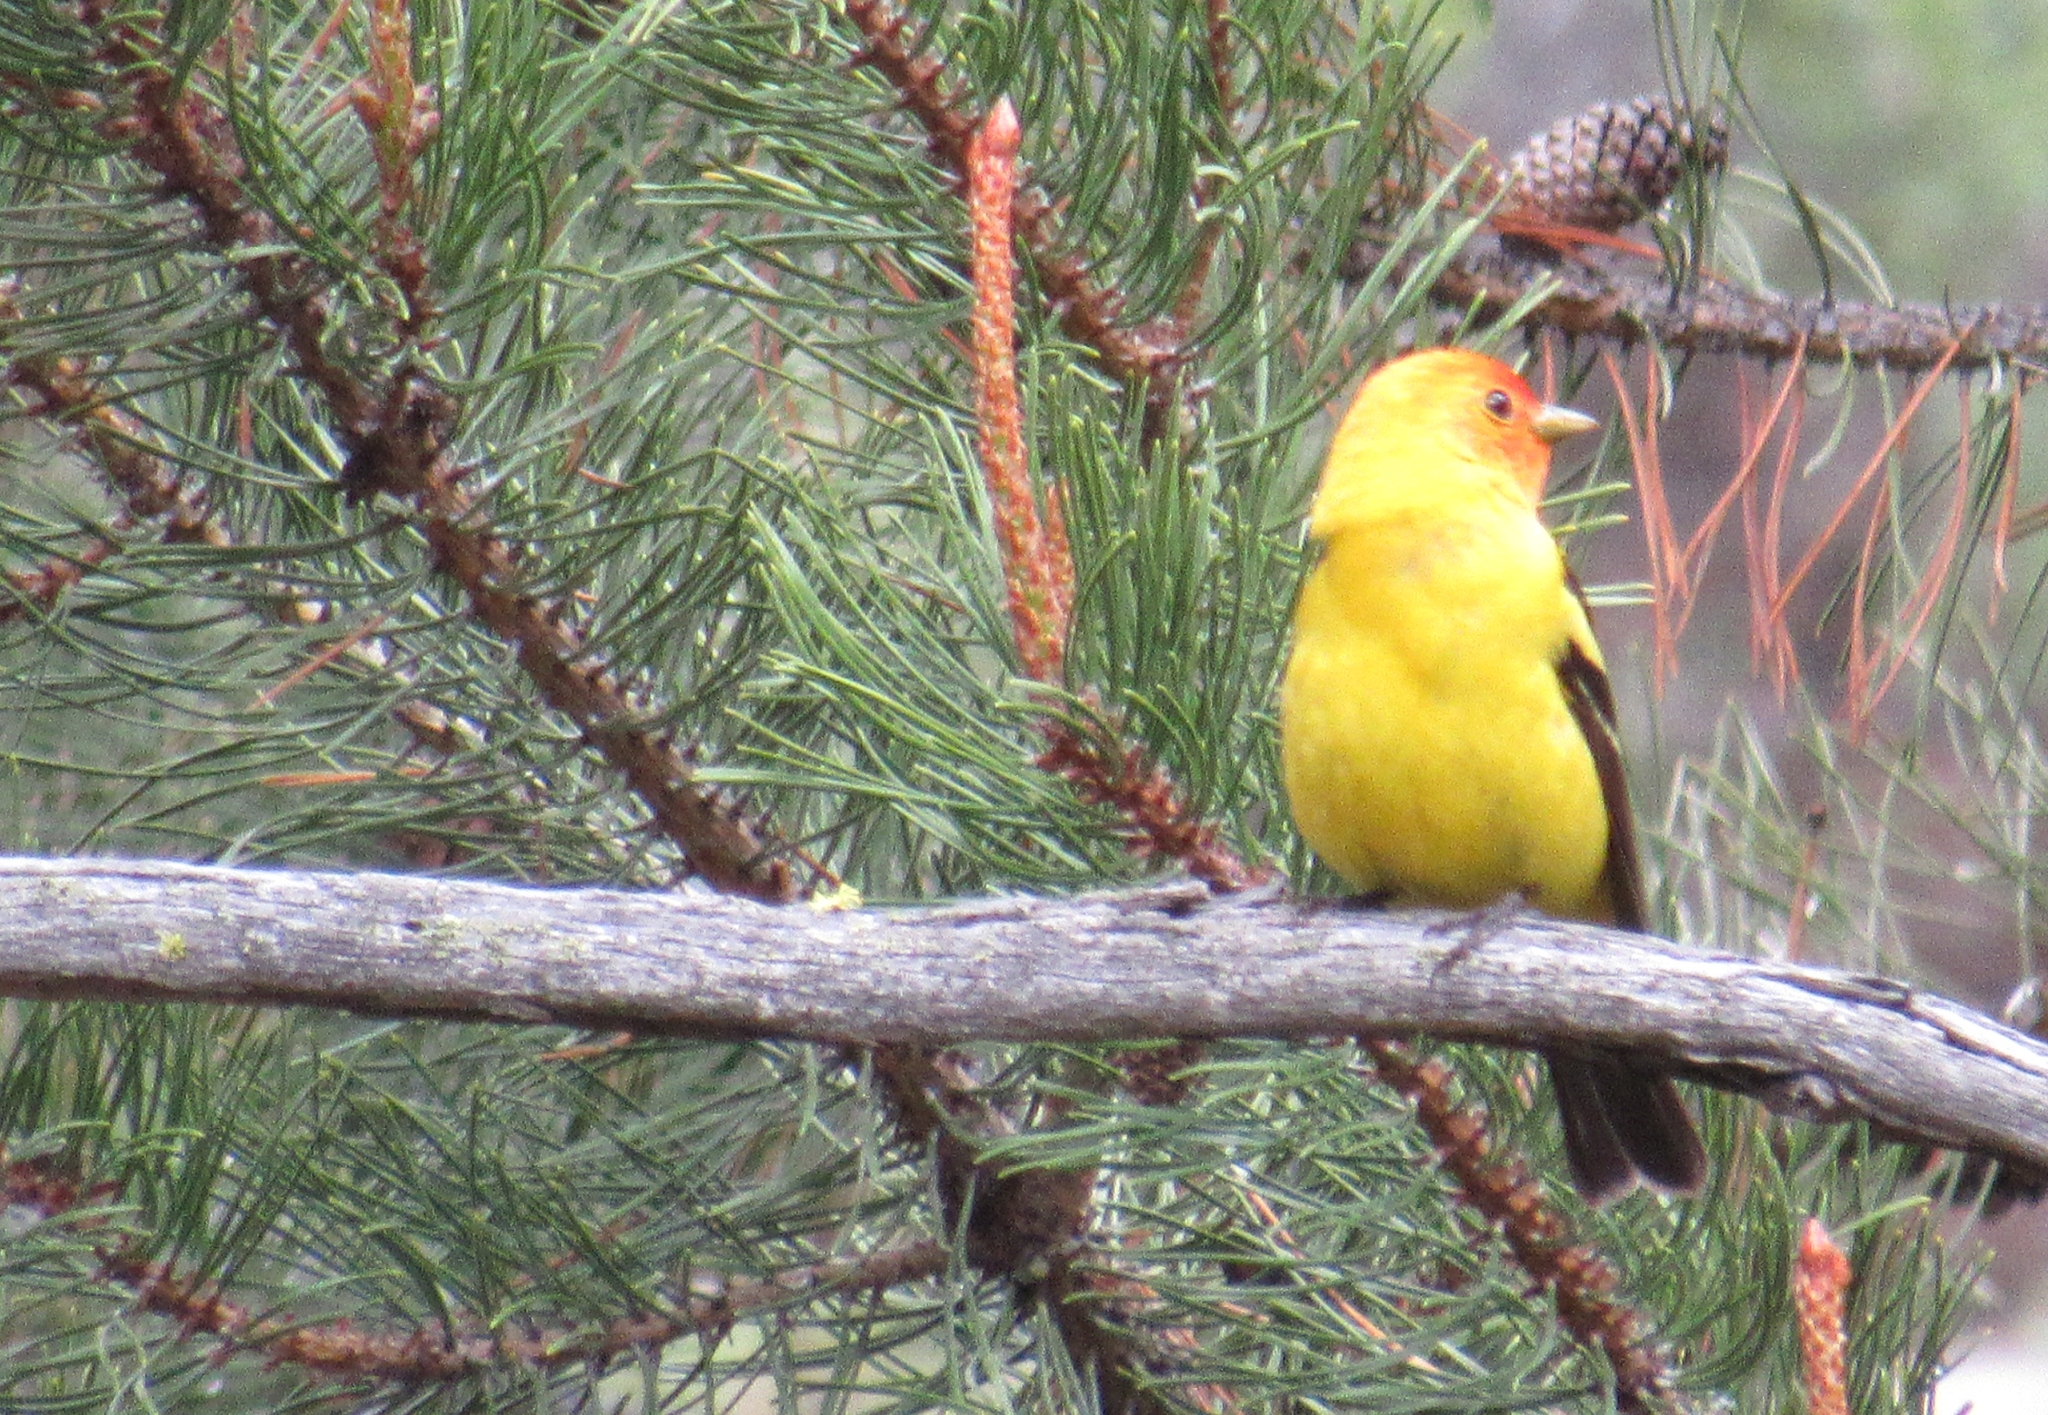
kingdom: Animalia
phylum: Chordata
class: Aves
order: Passeriformes
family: Cardinalidae
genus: Piranga
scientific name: Piranga ludoviciana
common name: Western tanager
